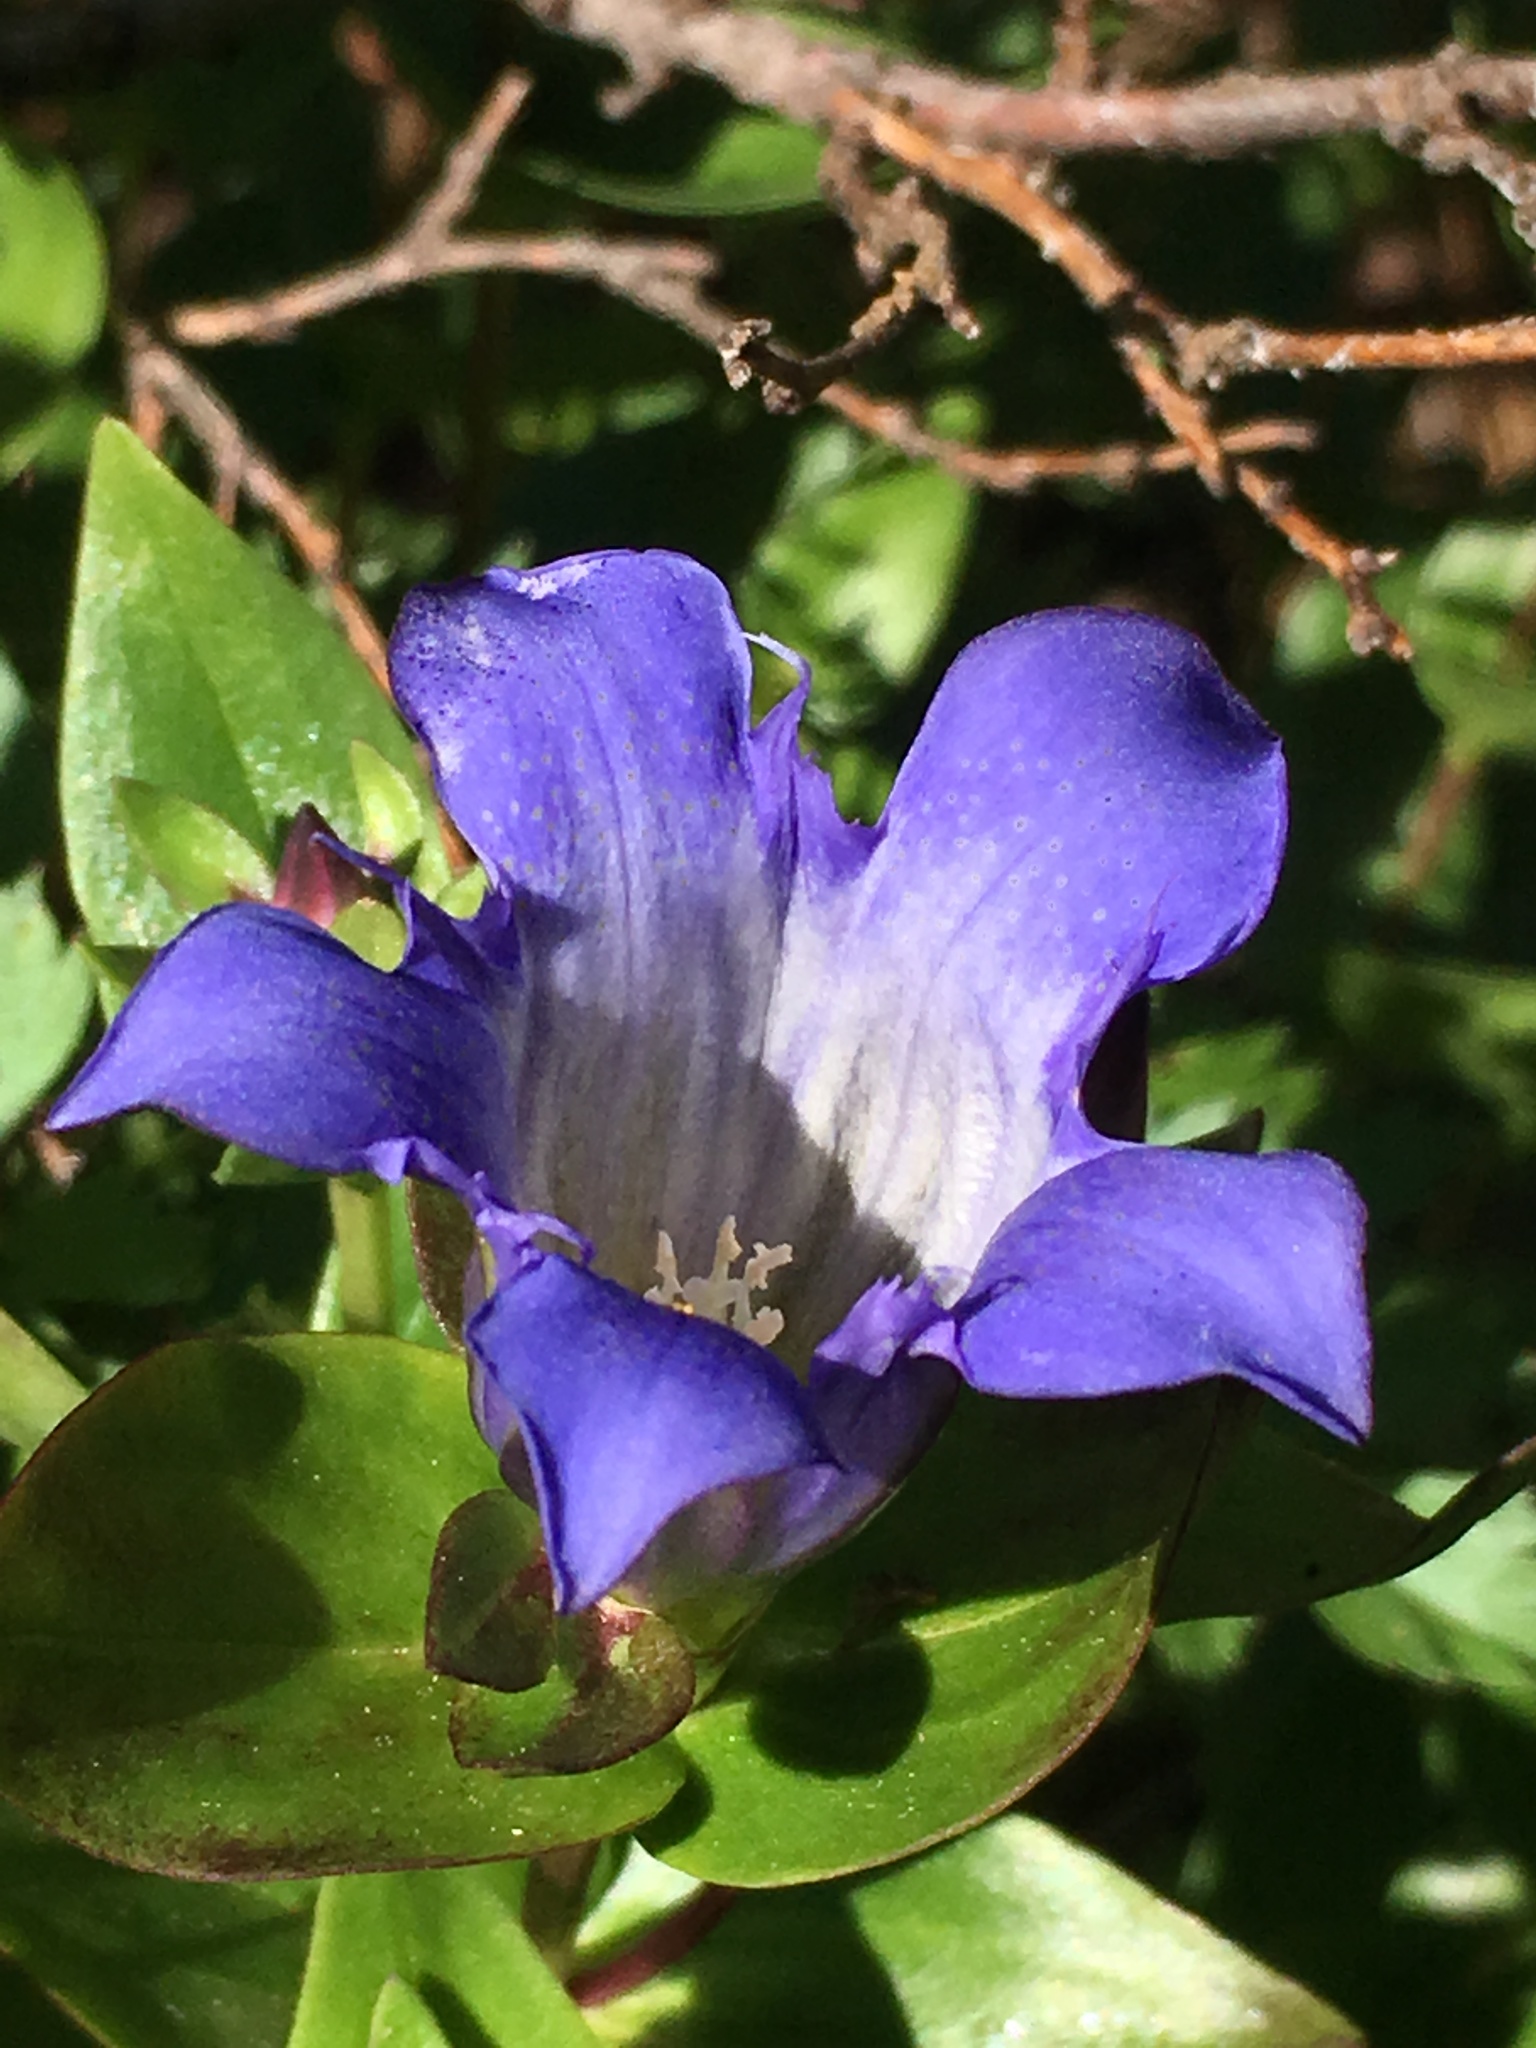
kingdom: Plantae
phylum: Tracheophyta
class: Magnoliopsida
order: Gentianales
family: Gentianaceae
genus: Gentiana
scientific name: Gentiana calycosa
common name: Rainier pleated gentian
